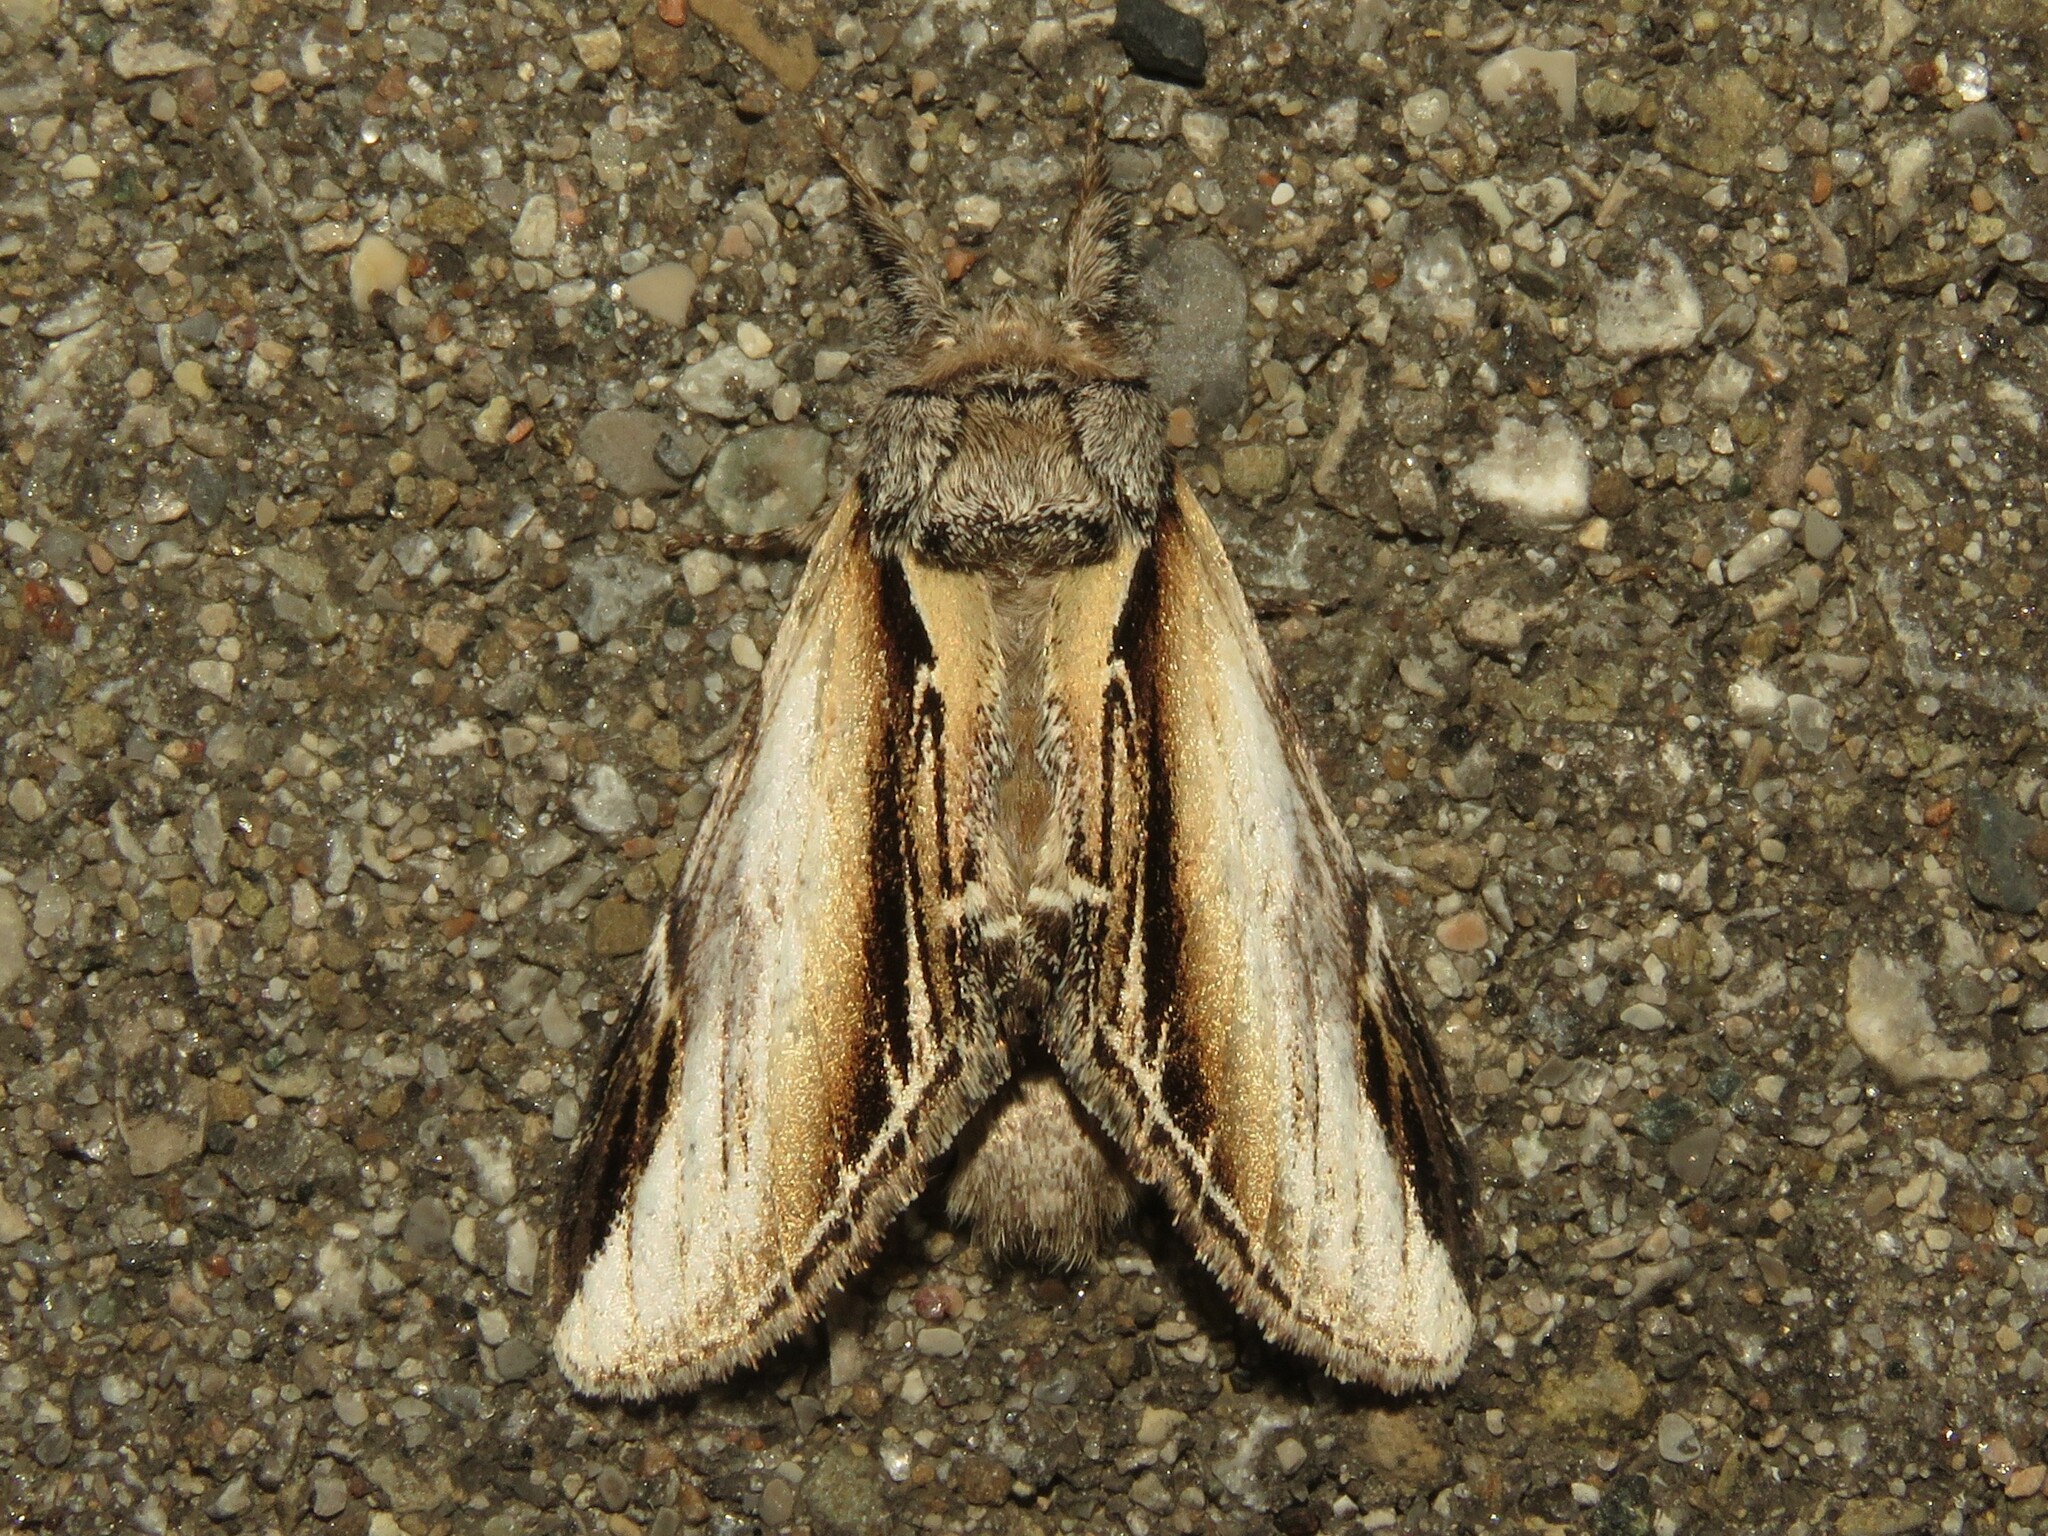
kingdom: Animalia
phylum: Arthropoda
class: Insecta
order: Lepidoptera
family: Notodontidae
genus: Pheosia
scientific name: Pheosia rimosa
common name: Black-rimmed prominent
